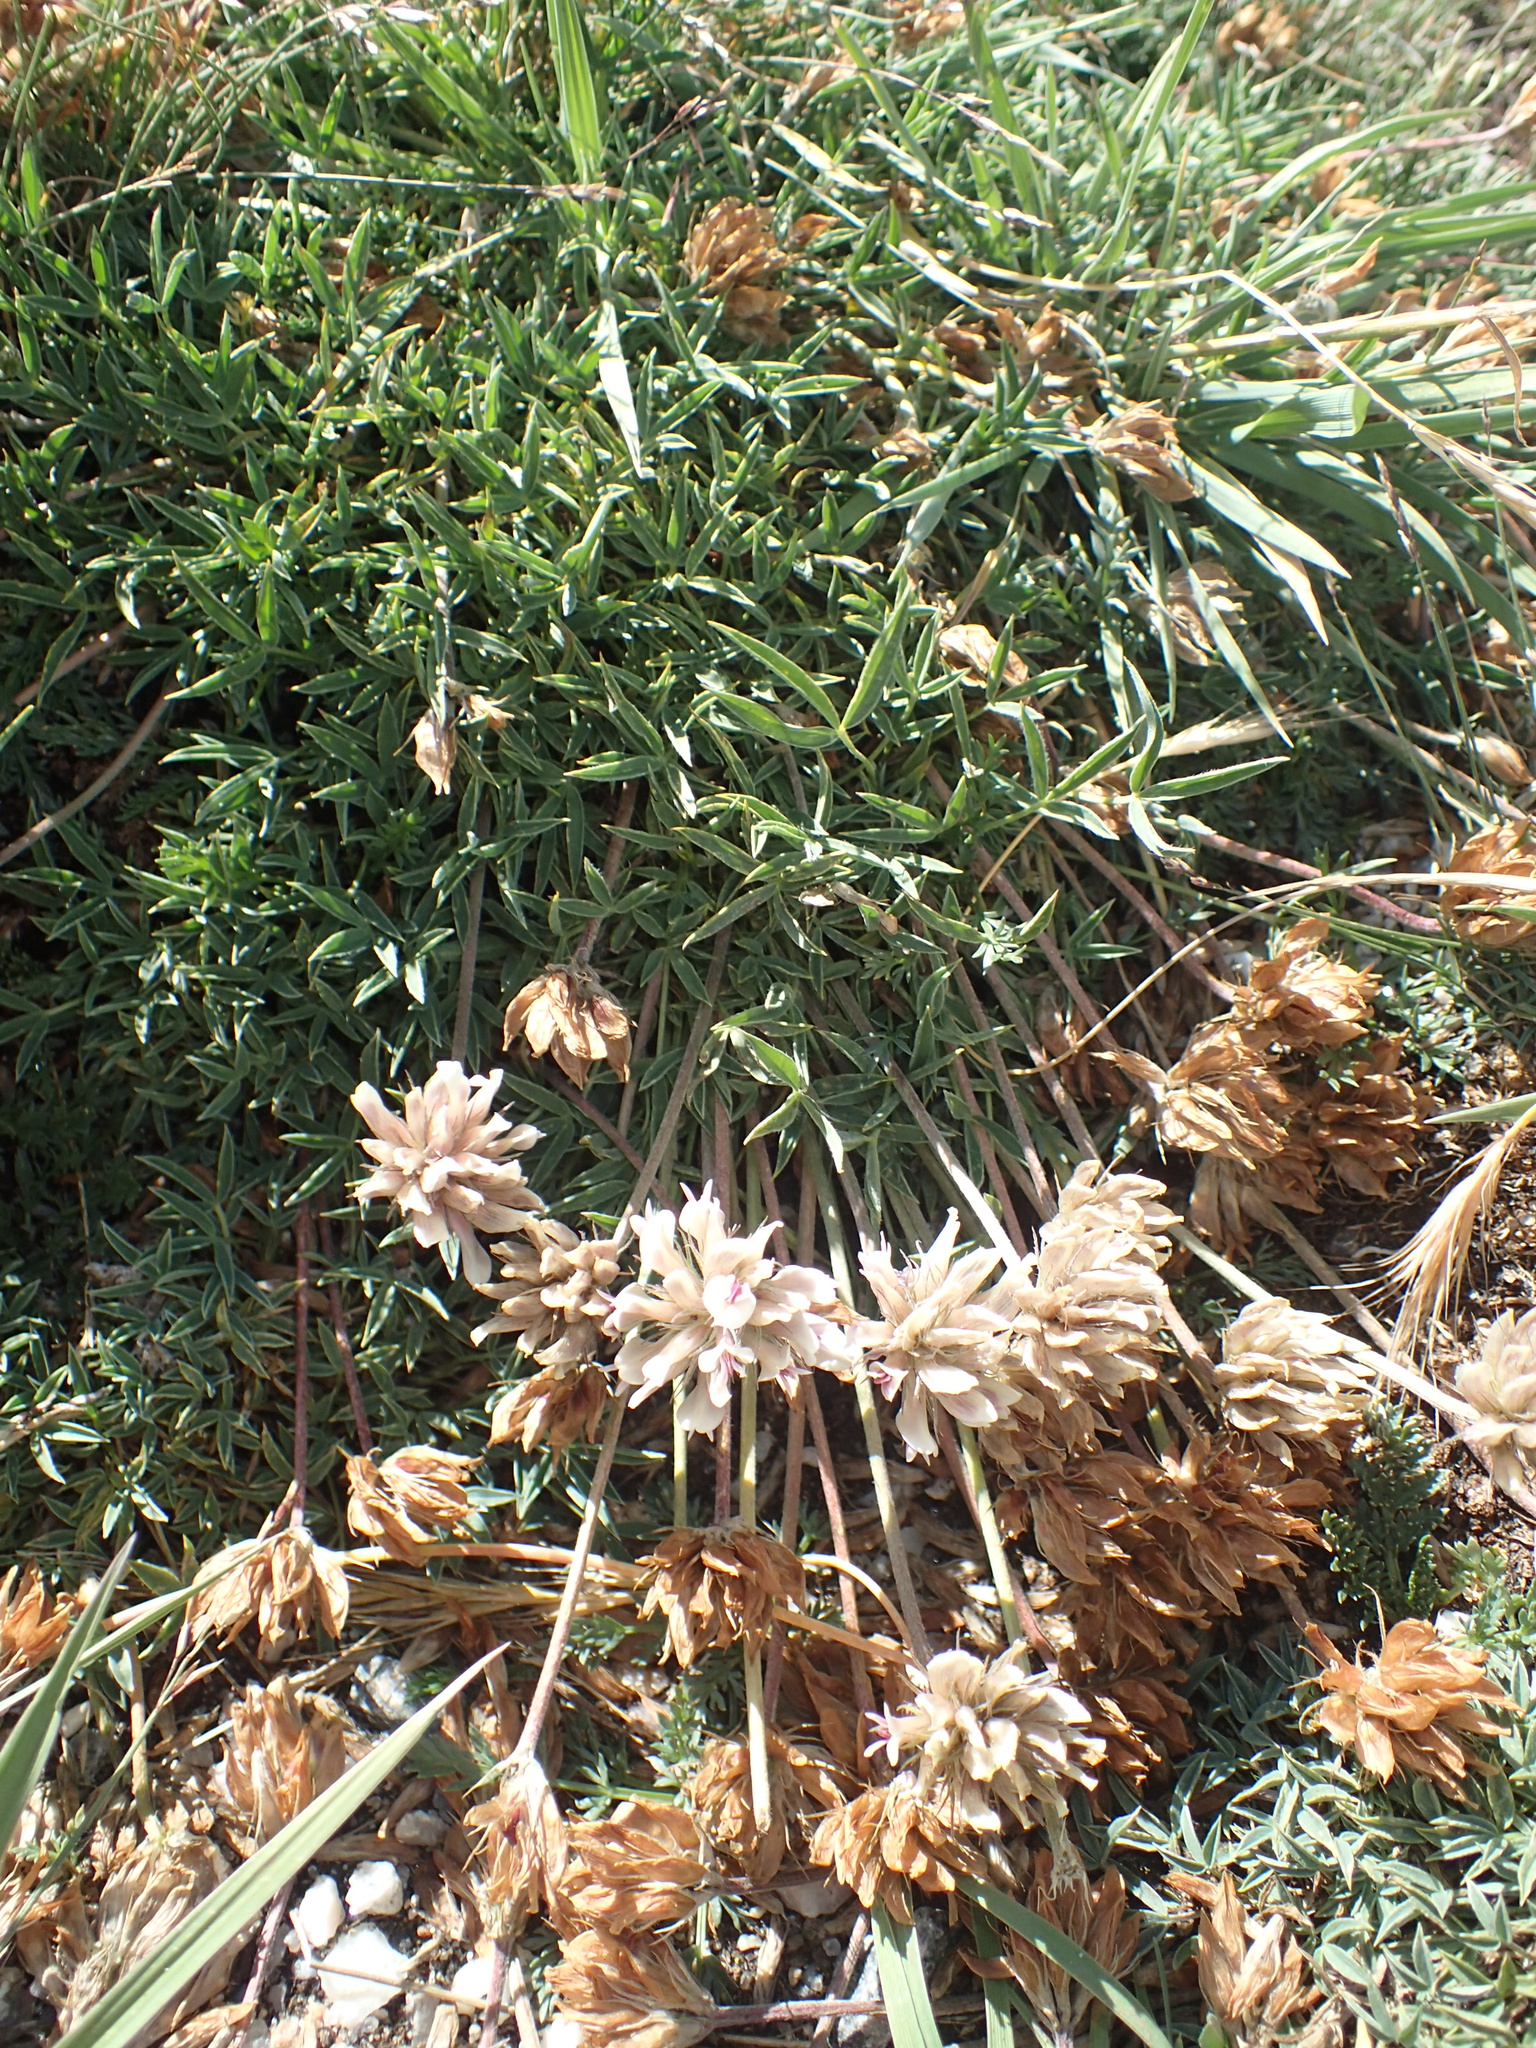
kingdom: Plantae
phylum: Tracheophyta
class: Magnoliopsida
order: Fabales
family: Fabaceae
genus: Trifolium
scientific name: Trifolium dasyphyllum
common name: Whip-root clover
